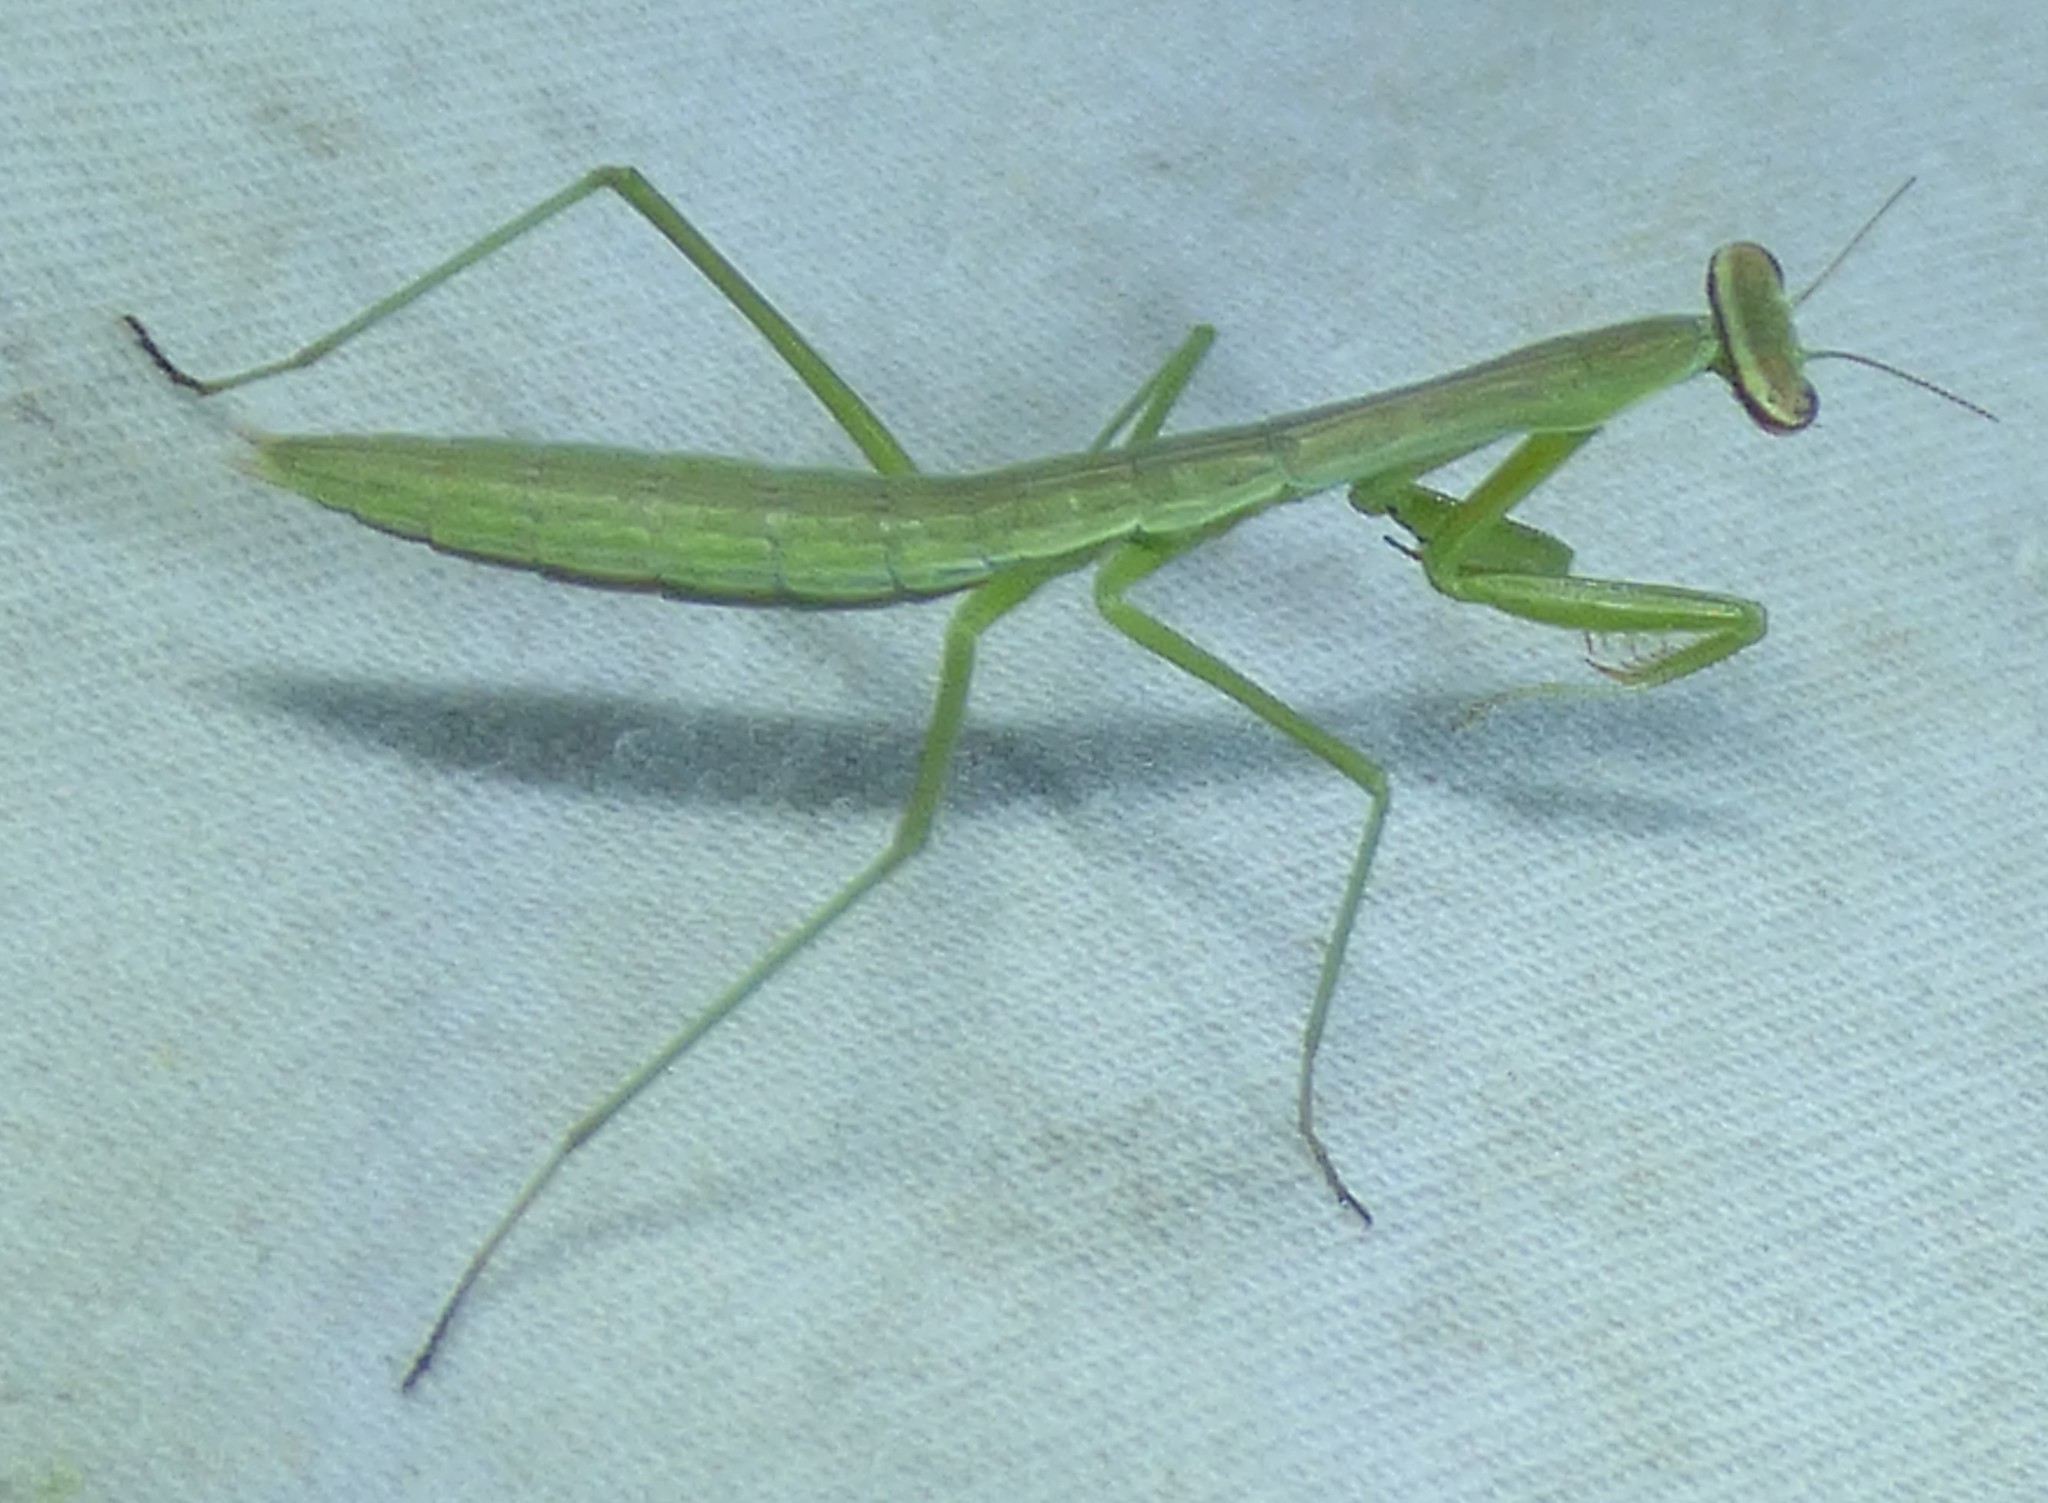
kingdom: Animalia
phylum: Arthropoda
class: Insecta
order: Mantodea
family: Mantidae
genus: Tenodera
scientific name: Tenodera sinensis
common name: Chinese mantis
